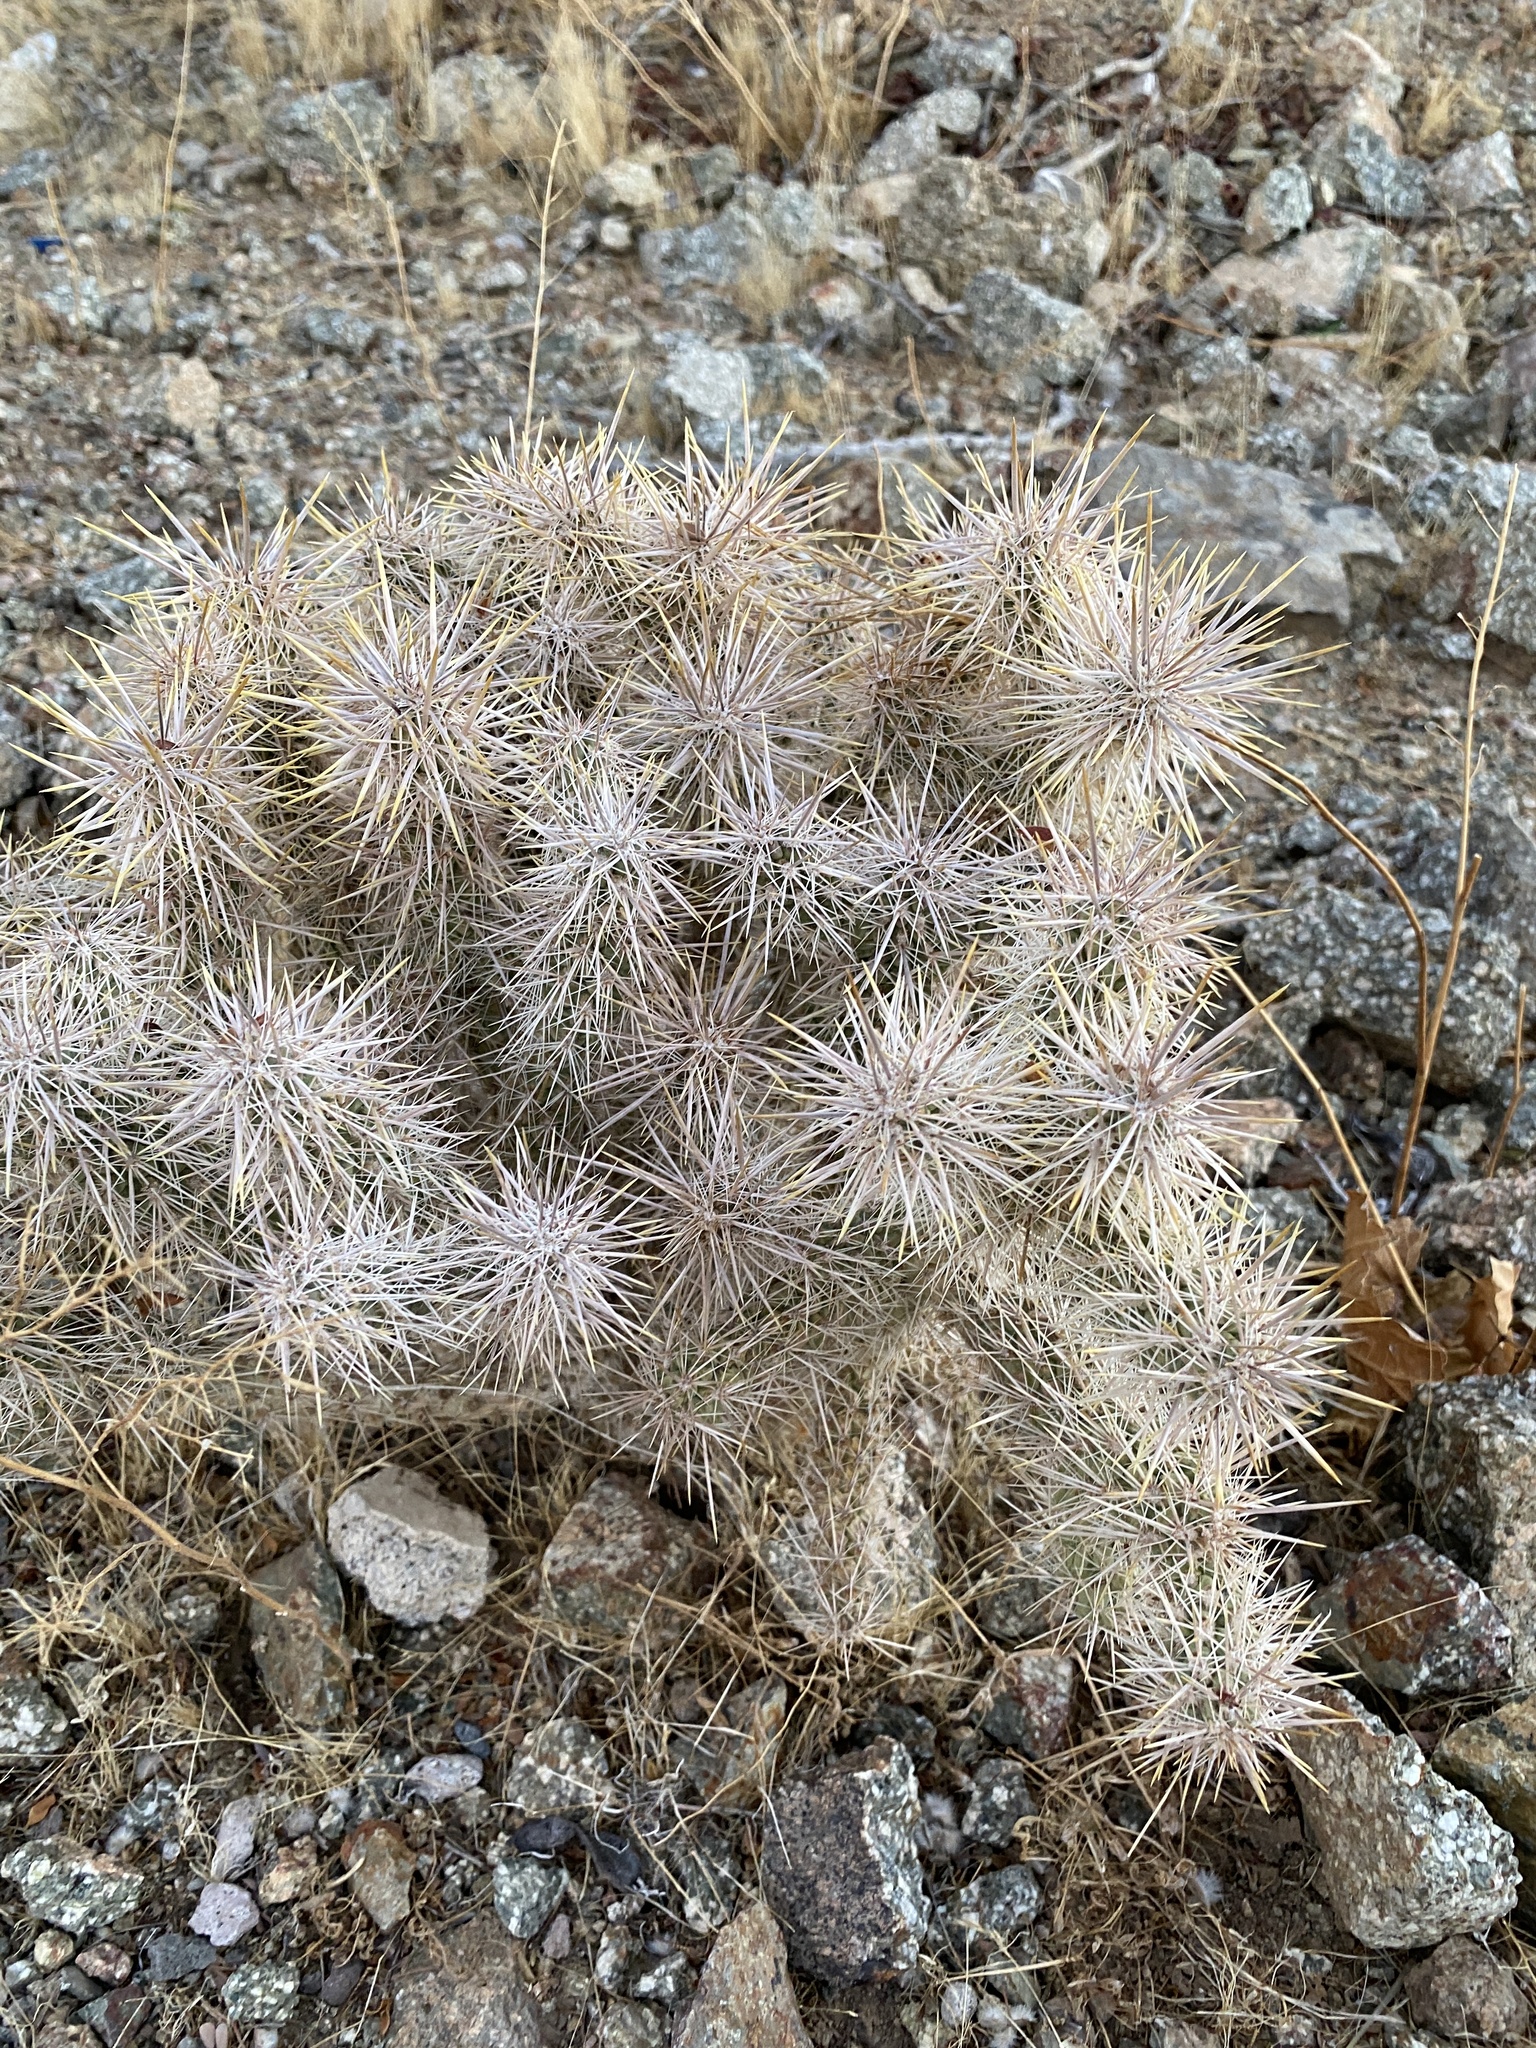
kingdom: Plantae
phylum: Tracheophyta
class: Magnoliopsida
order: Caryophyllales
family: Cactaceae
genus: Cylindropuntia
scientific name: Cylindropuntia echinocarpa
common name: Ground cholla
